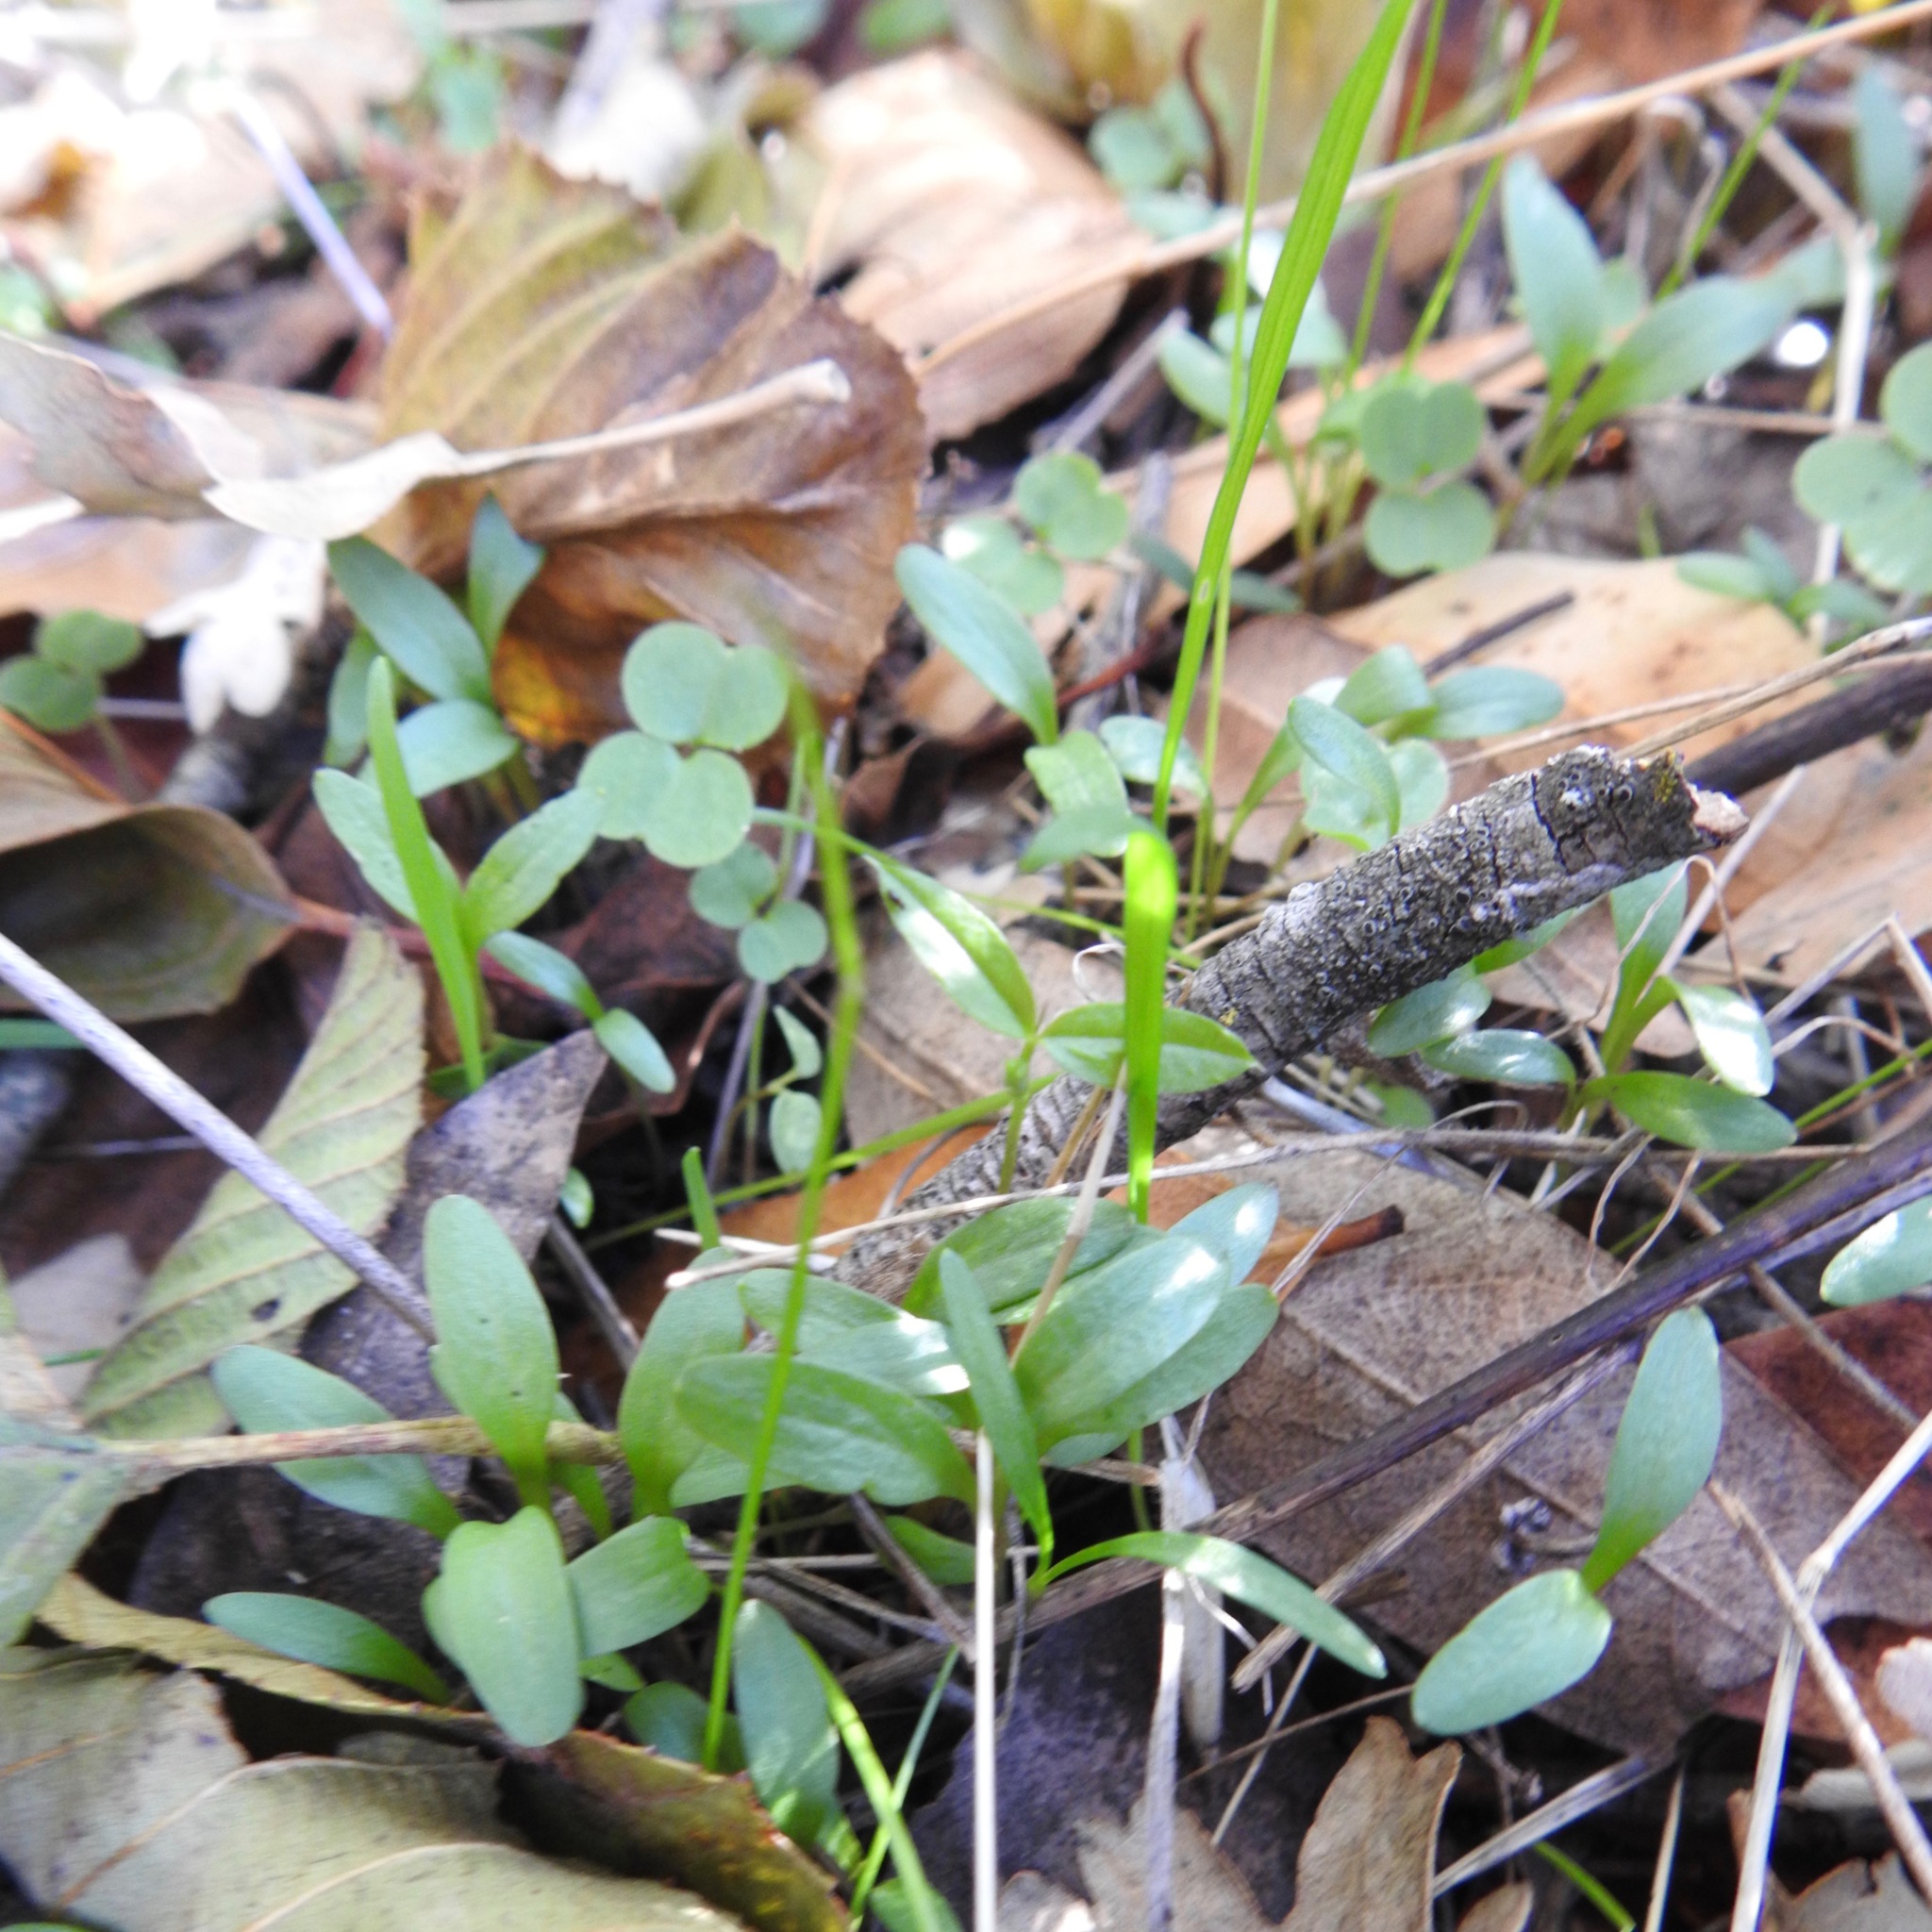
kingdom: Plantae
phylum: Tracheophyta
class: Magnoliopsida
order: Geraniales
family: Geraniaceae
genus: Geranium
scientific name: Geranium
